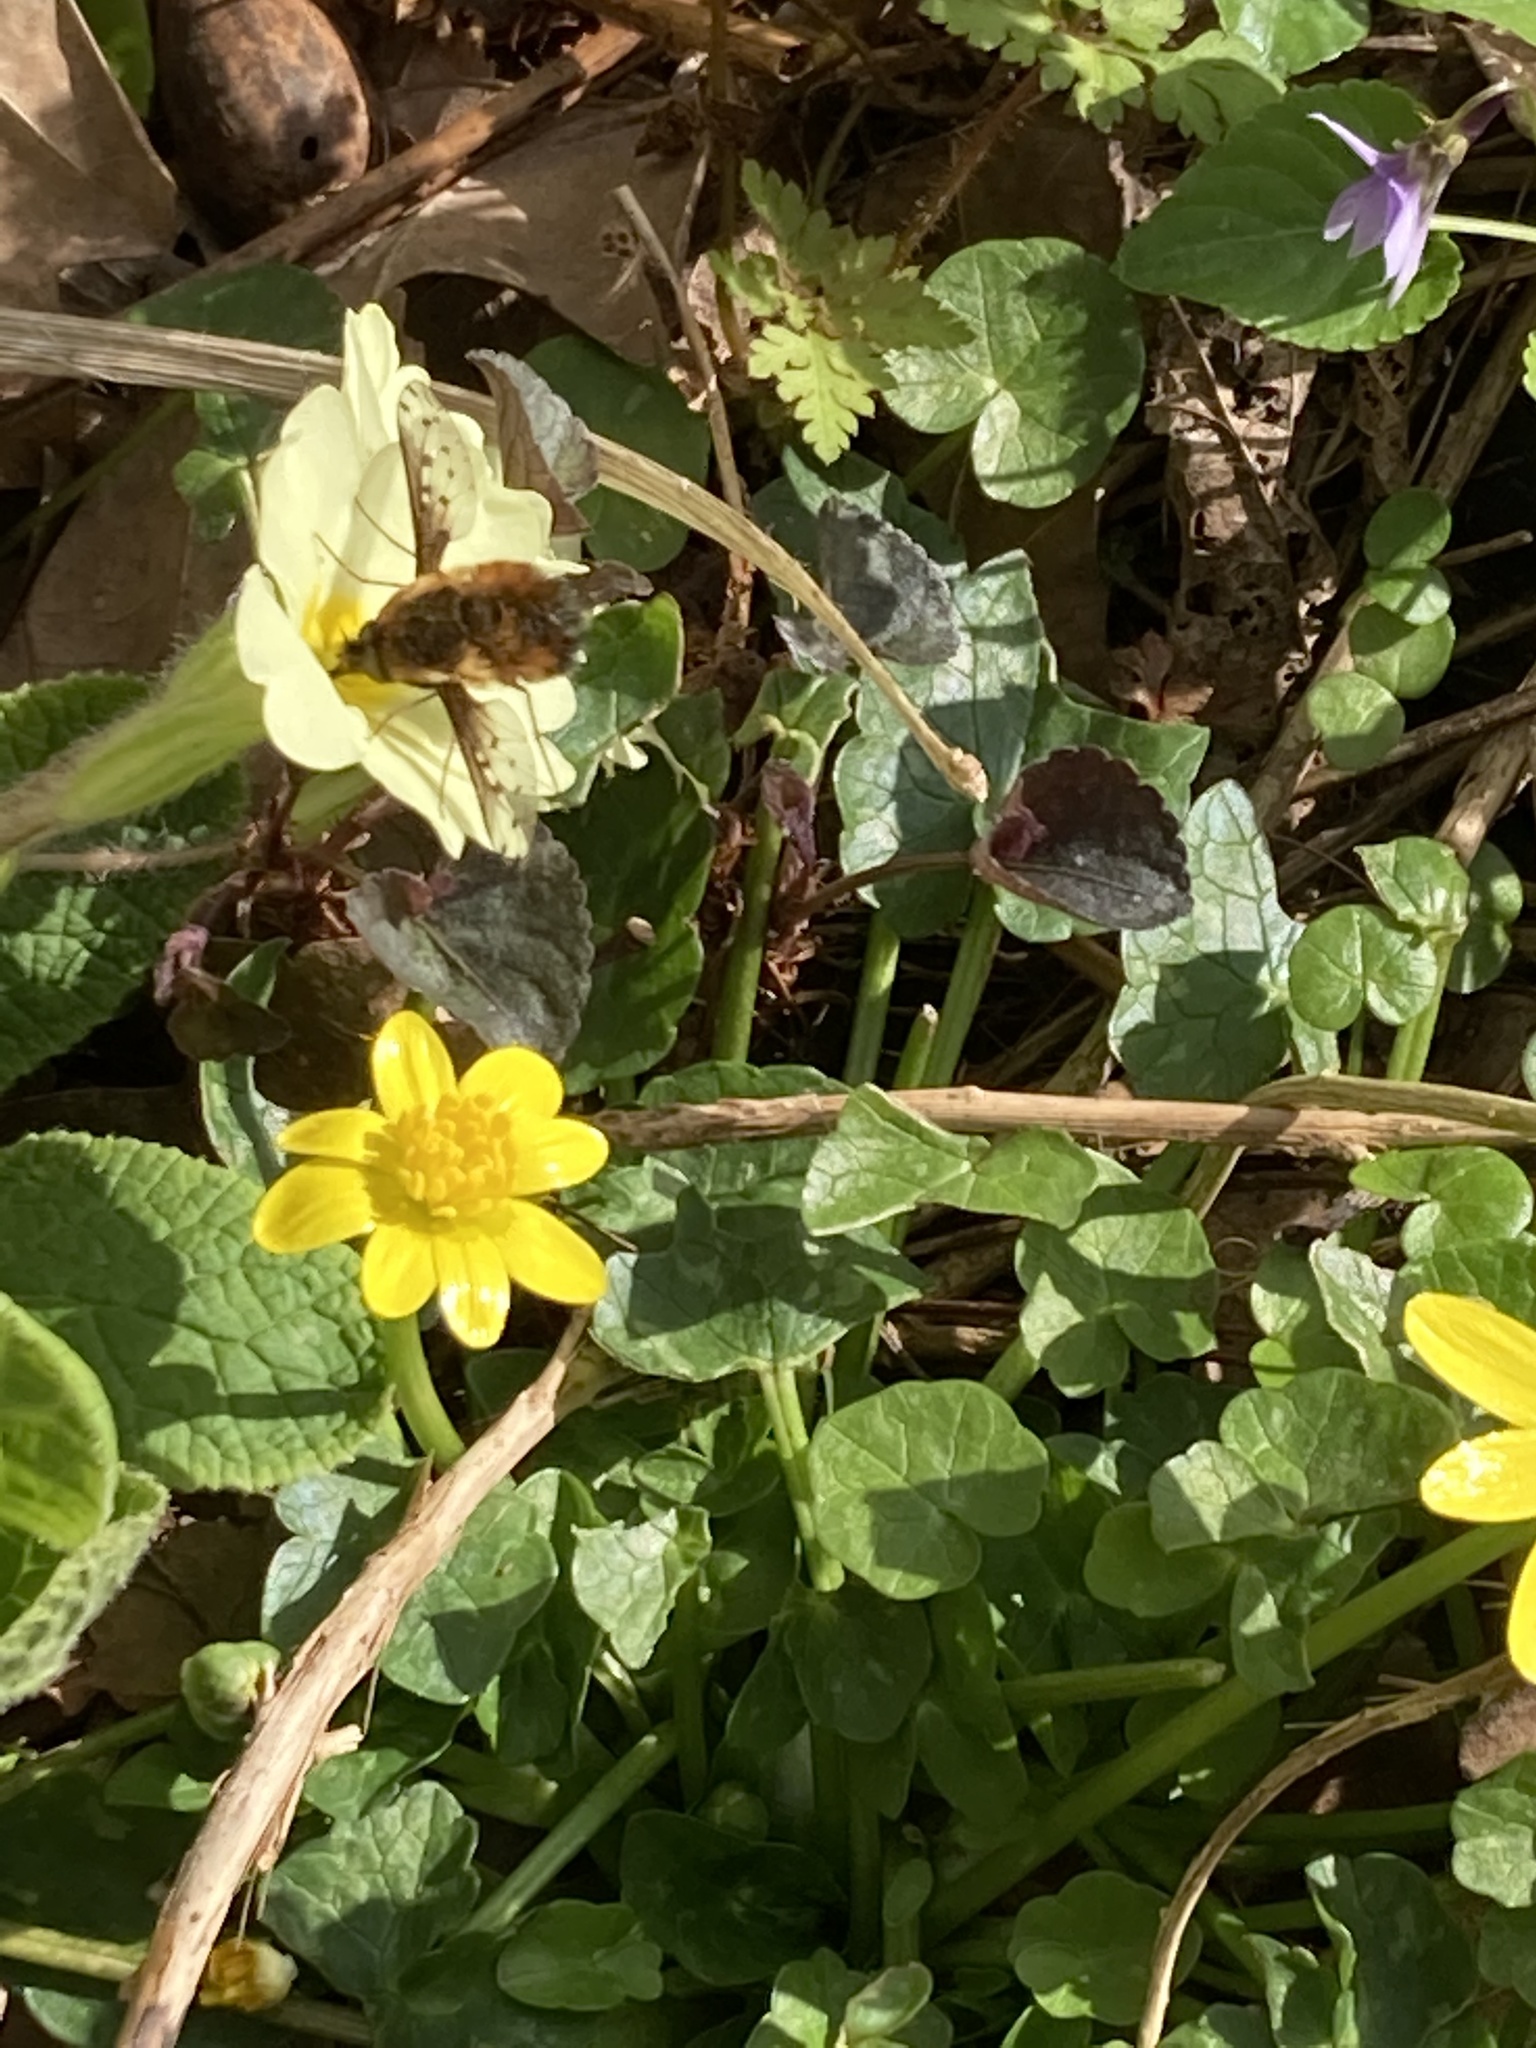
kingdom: Animalia
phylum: Arthropoda
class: Insecta
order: Diptera
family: Bombyliidae
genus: Bombylius
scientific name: Bombylius discolor
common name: Dotted bee-fly
